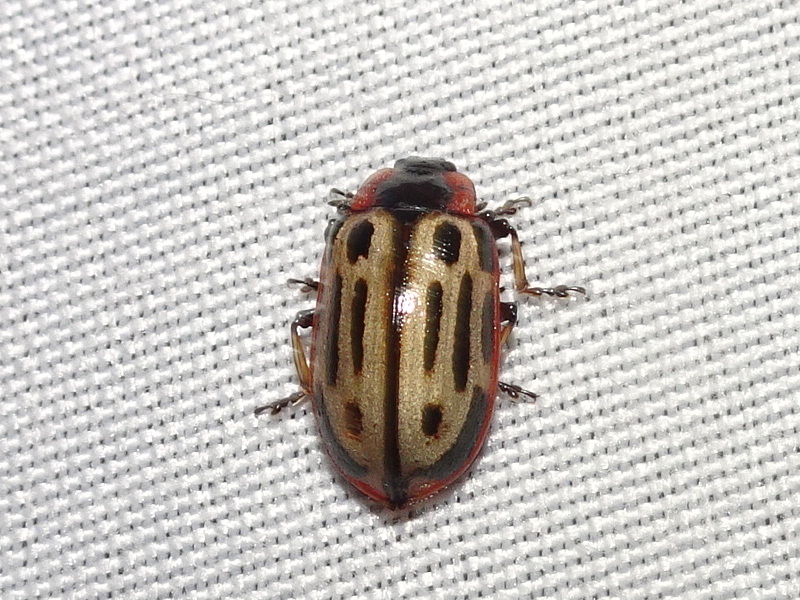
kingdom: Animalia
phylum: Arthropoda
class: Insecta
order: Coleoptera
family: Chrysomelidae
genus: Aethiopocassis
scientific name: Aethiopocassis scripta
